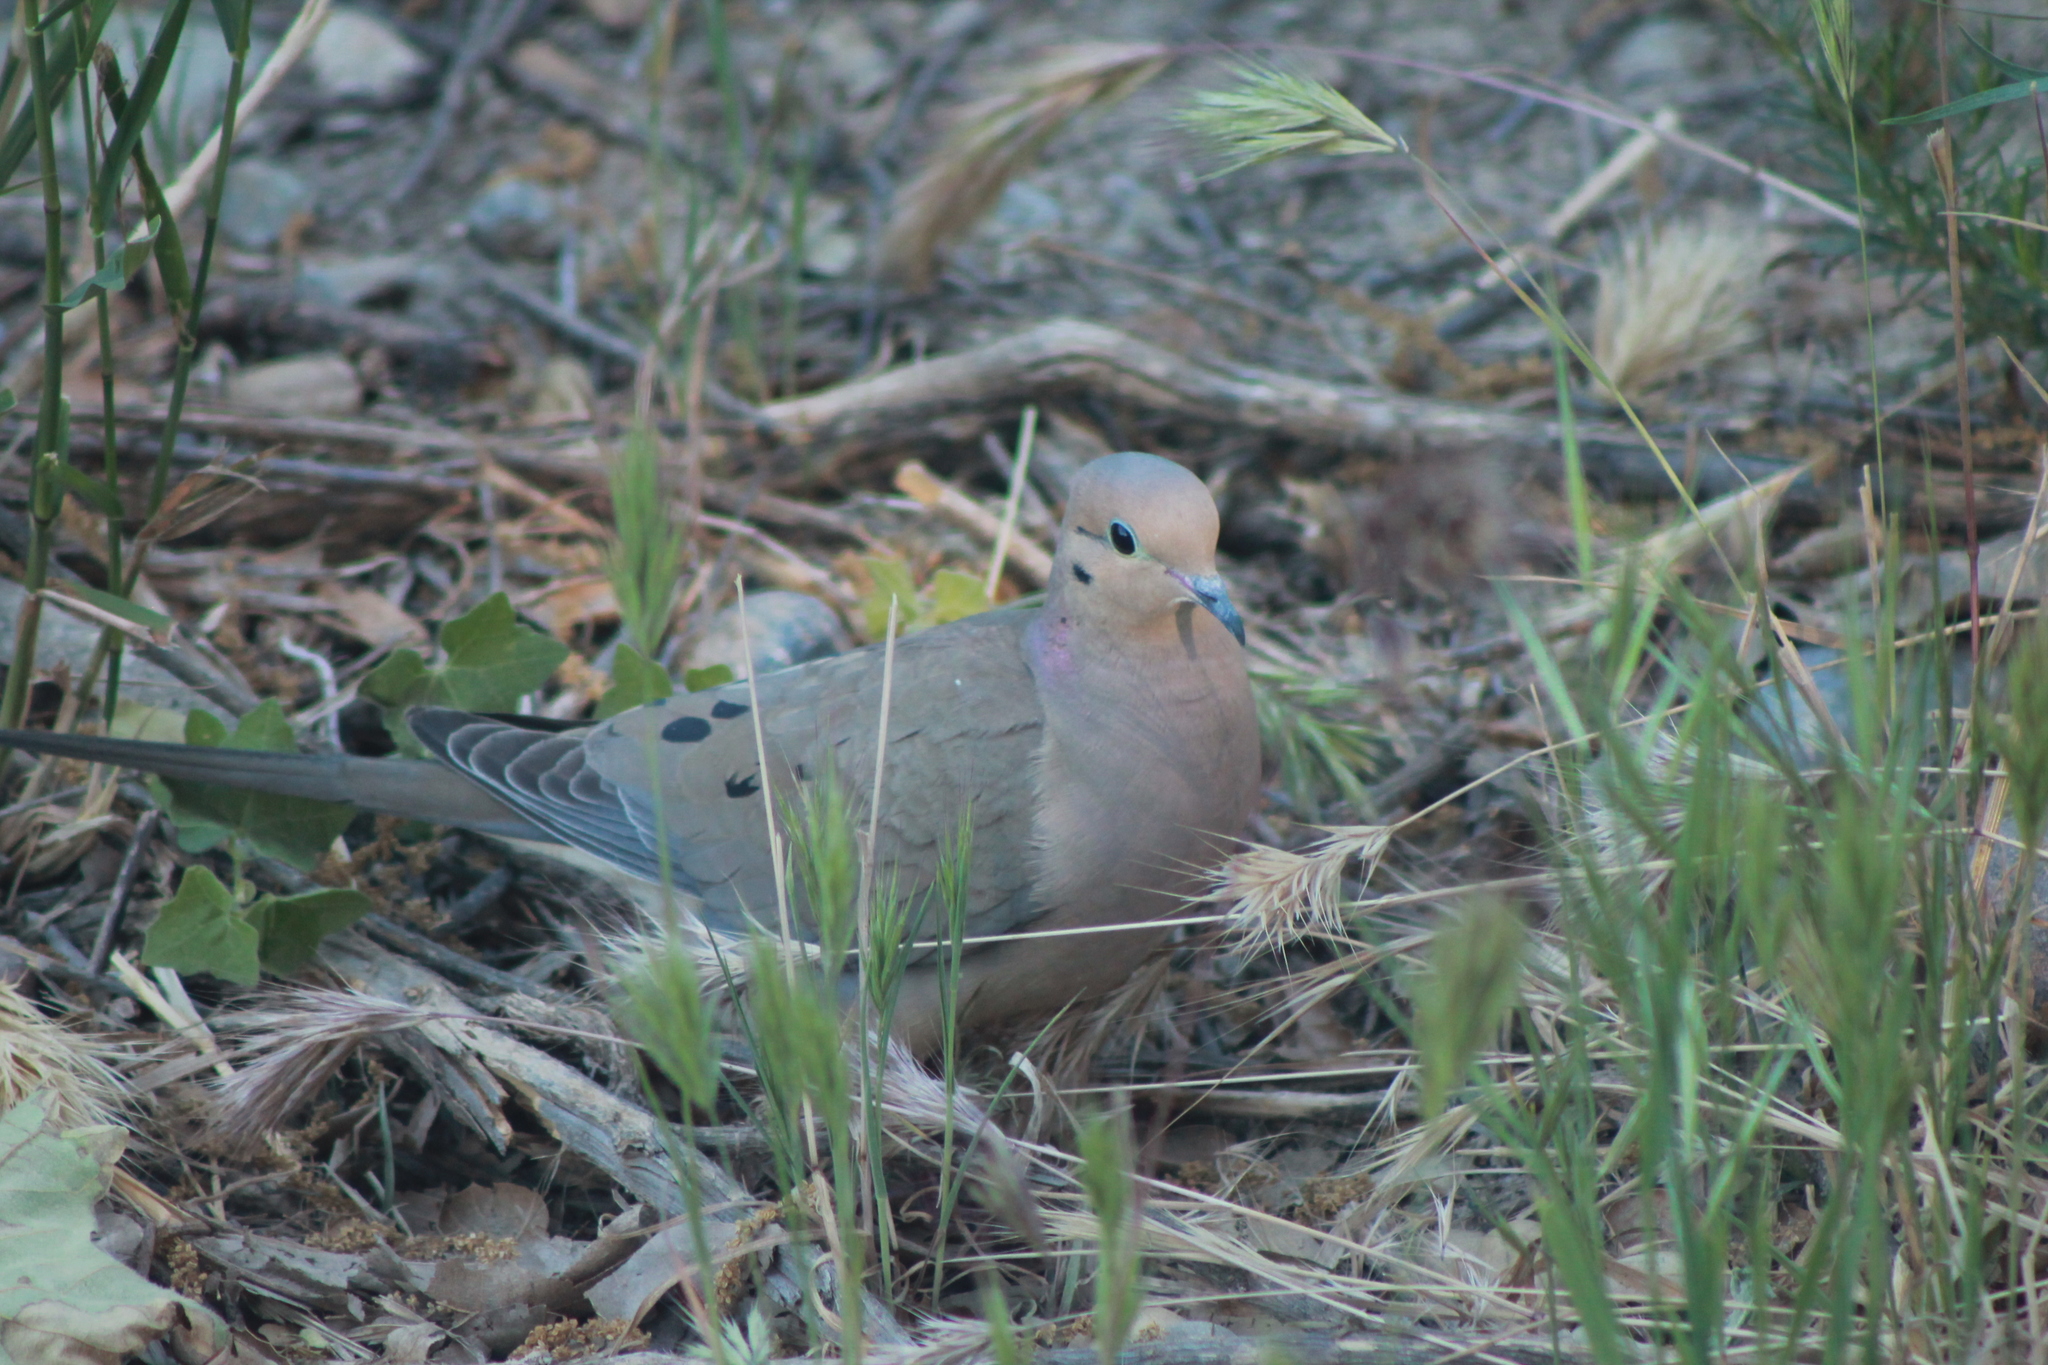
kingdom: Animalia
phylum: Chordata
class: Aves
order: Columbiformes
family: Columbidae
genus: Zenaida
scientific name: Zenaida macroura
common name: Mourning dove
